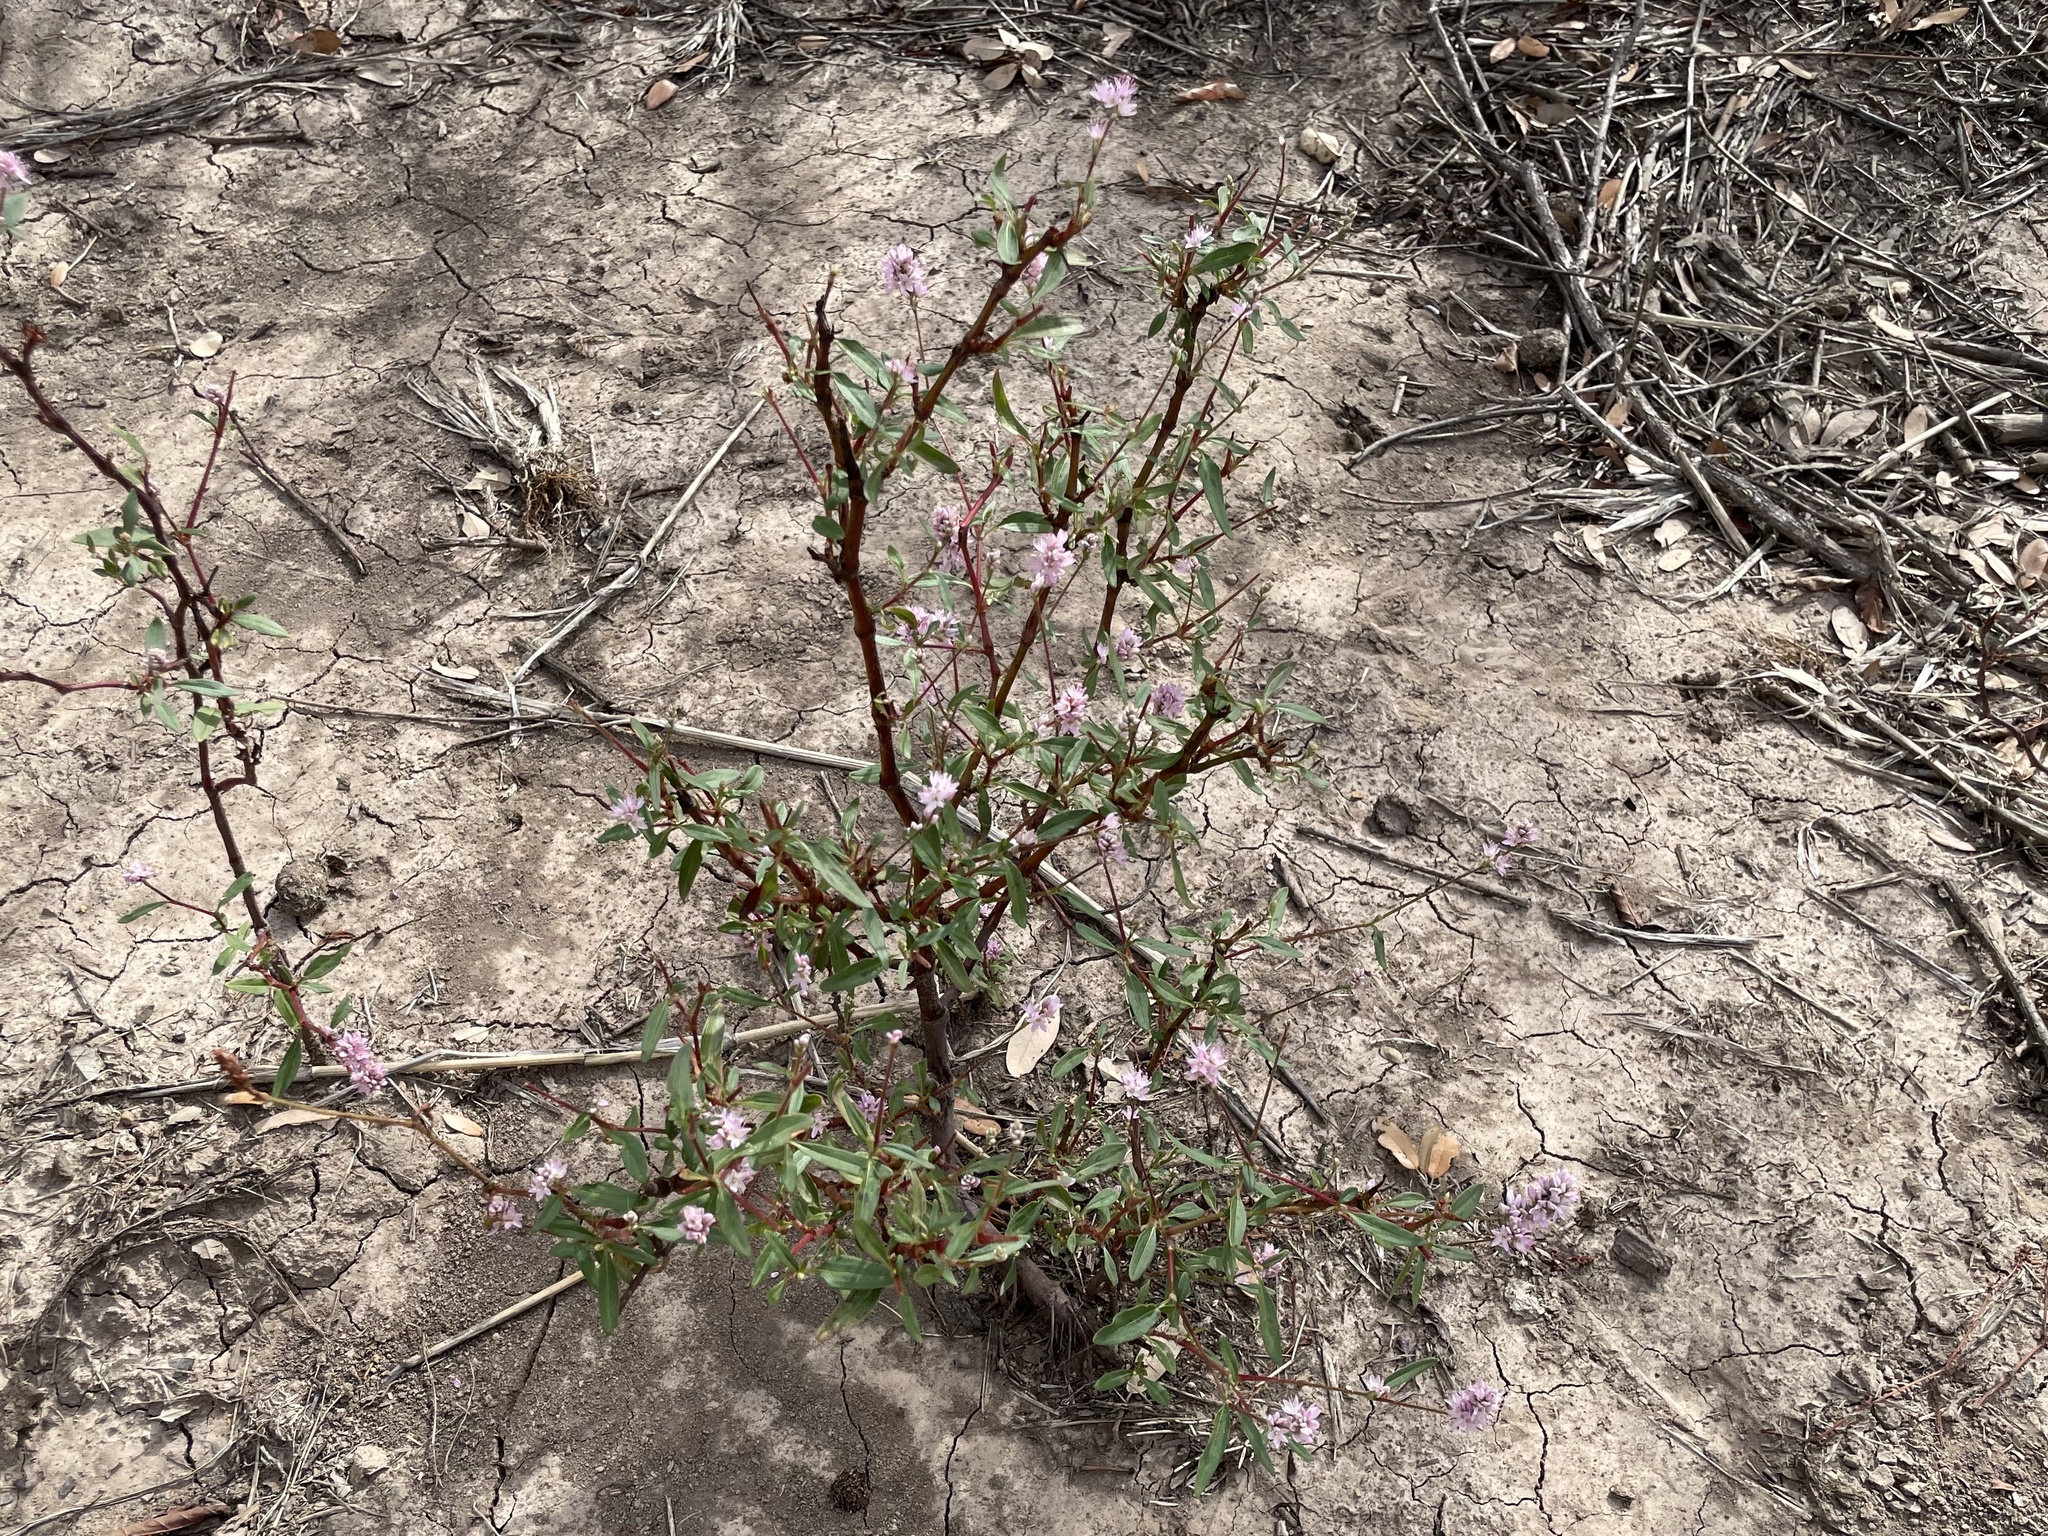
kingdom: Plantae
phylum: Tracheophyta
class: Magnoliopsida
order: Caryophyllales
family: Polygonaceae
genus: Persicaria
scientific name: Persicaria bicornis
